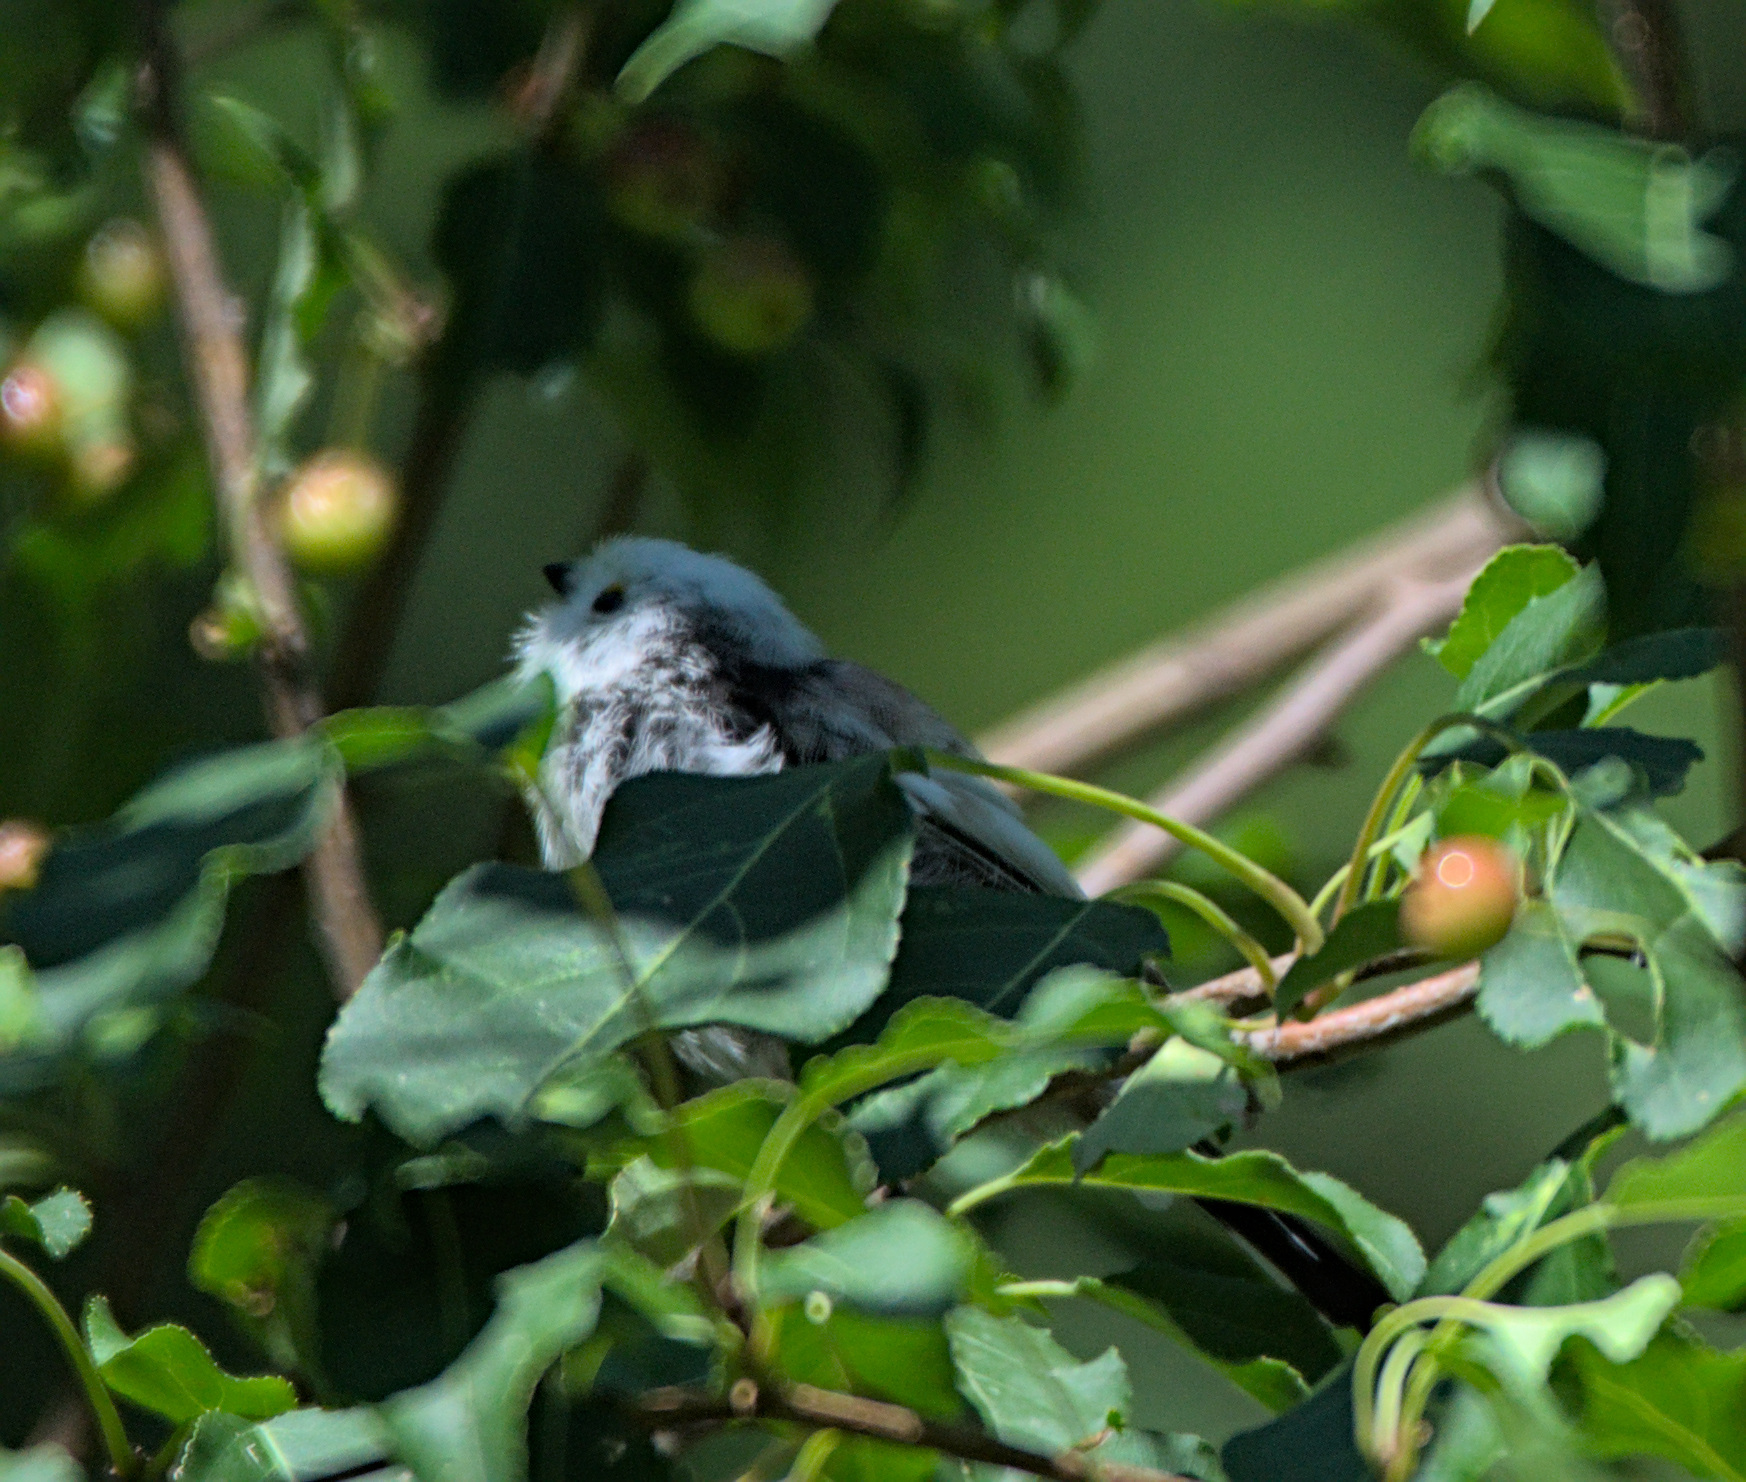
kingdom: Animalia
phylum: Chordata
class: Aves
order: Passeriformes
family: Aegithalidae
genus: Aegithalos
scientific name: Aegithalos caudatus
